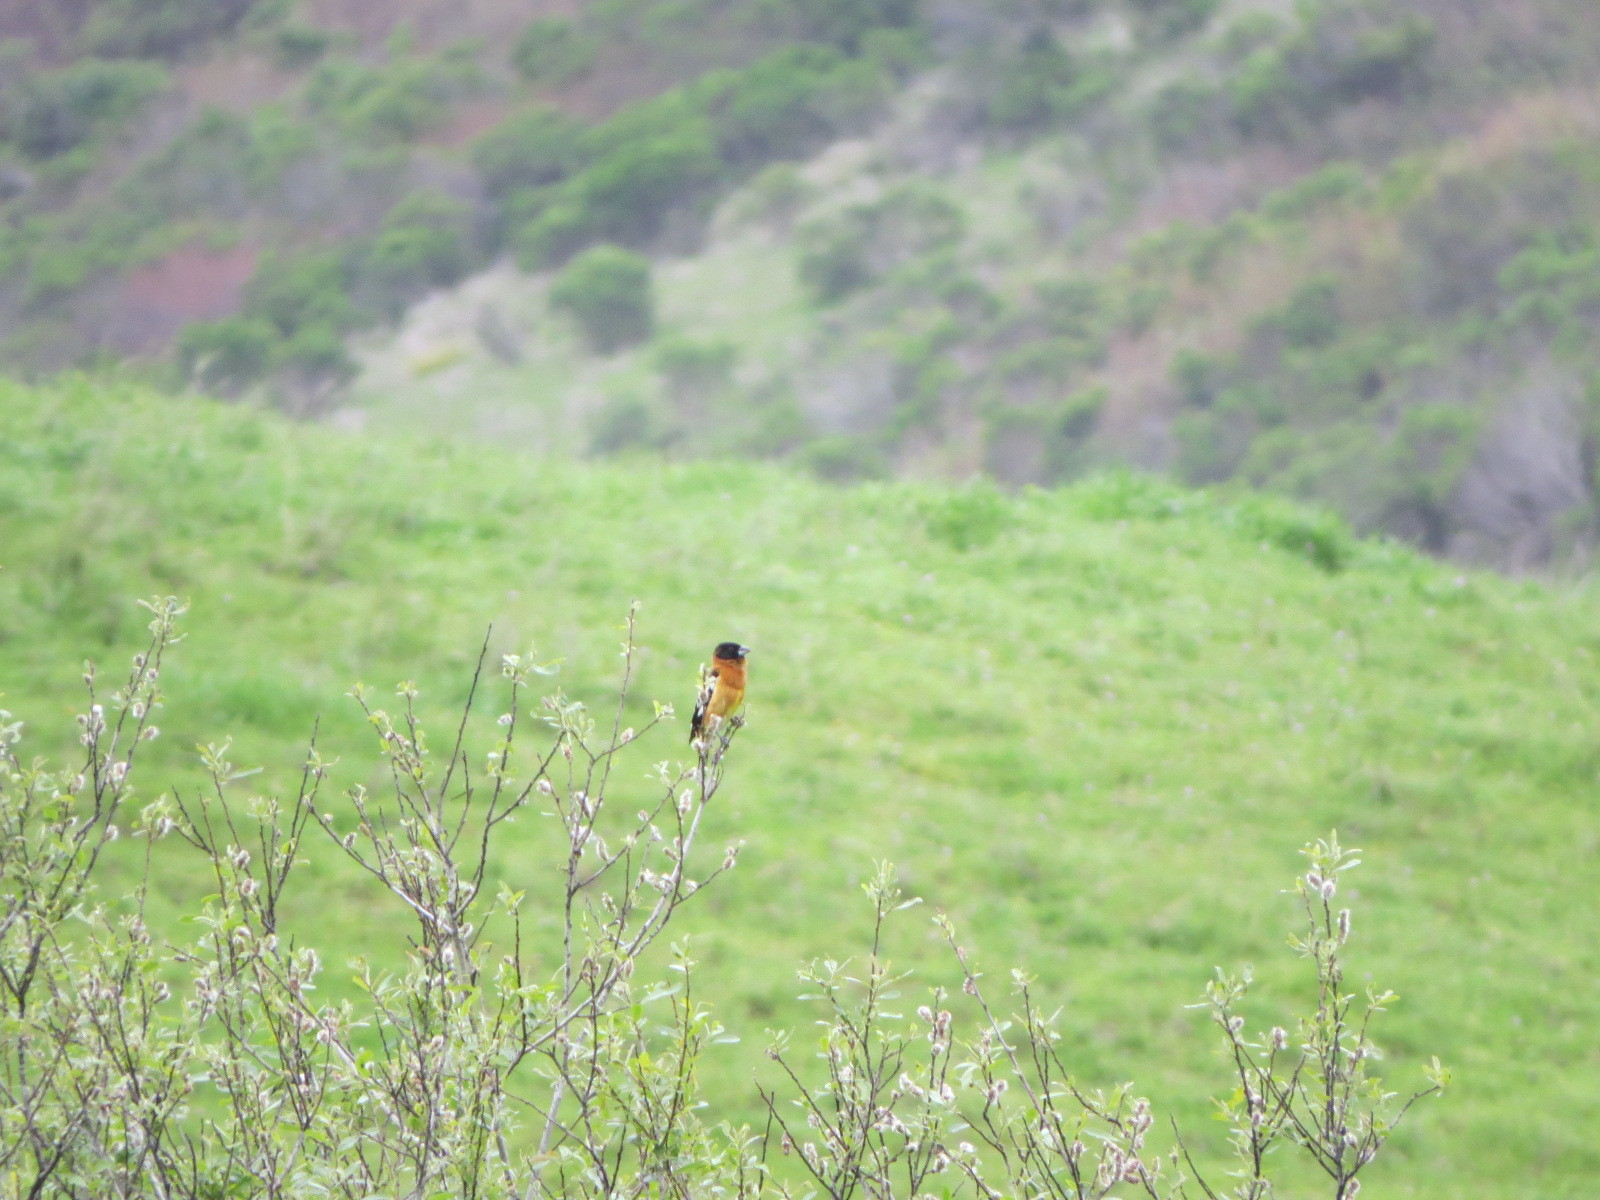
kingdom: Animalia
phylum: Chordata
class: Aves
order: Passeriformes
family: Cardinalidae
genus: Pheucticus
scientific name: Pheucticus melanocephalus
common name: Black-headed grosbeak
